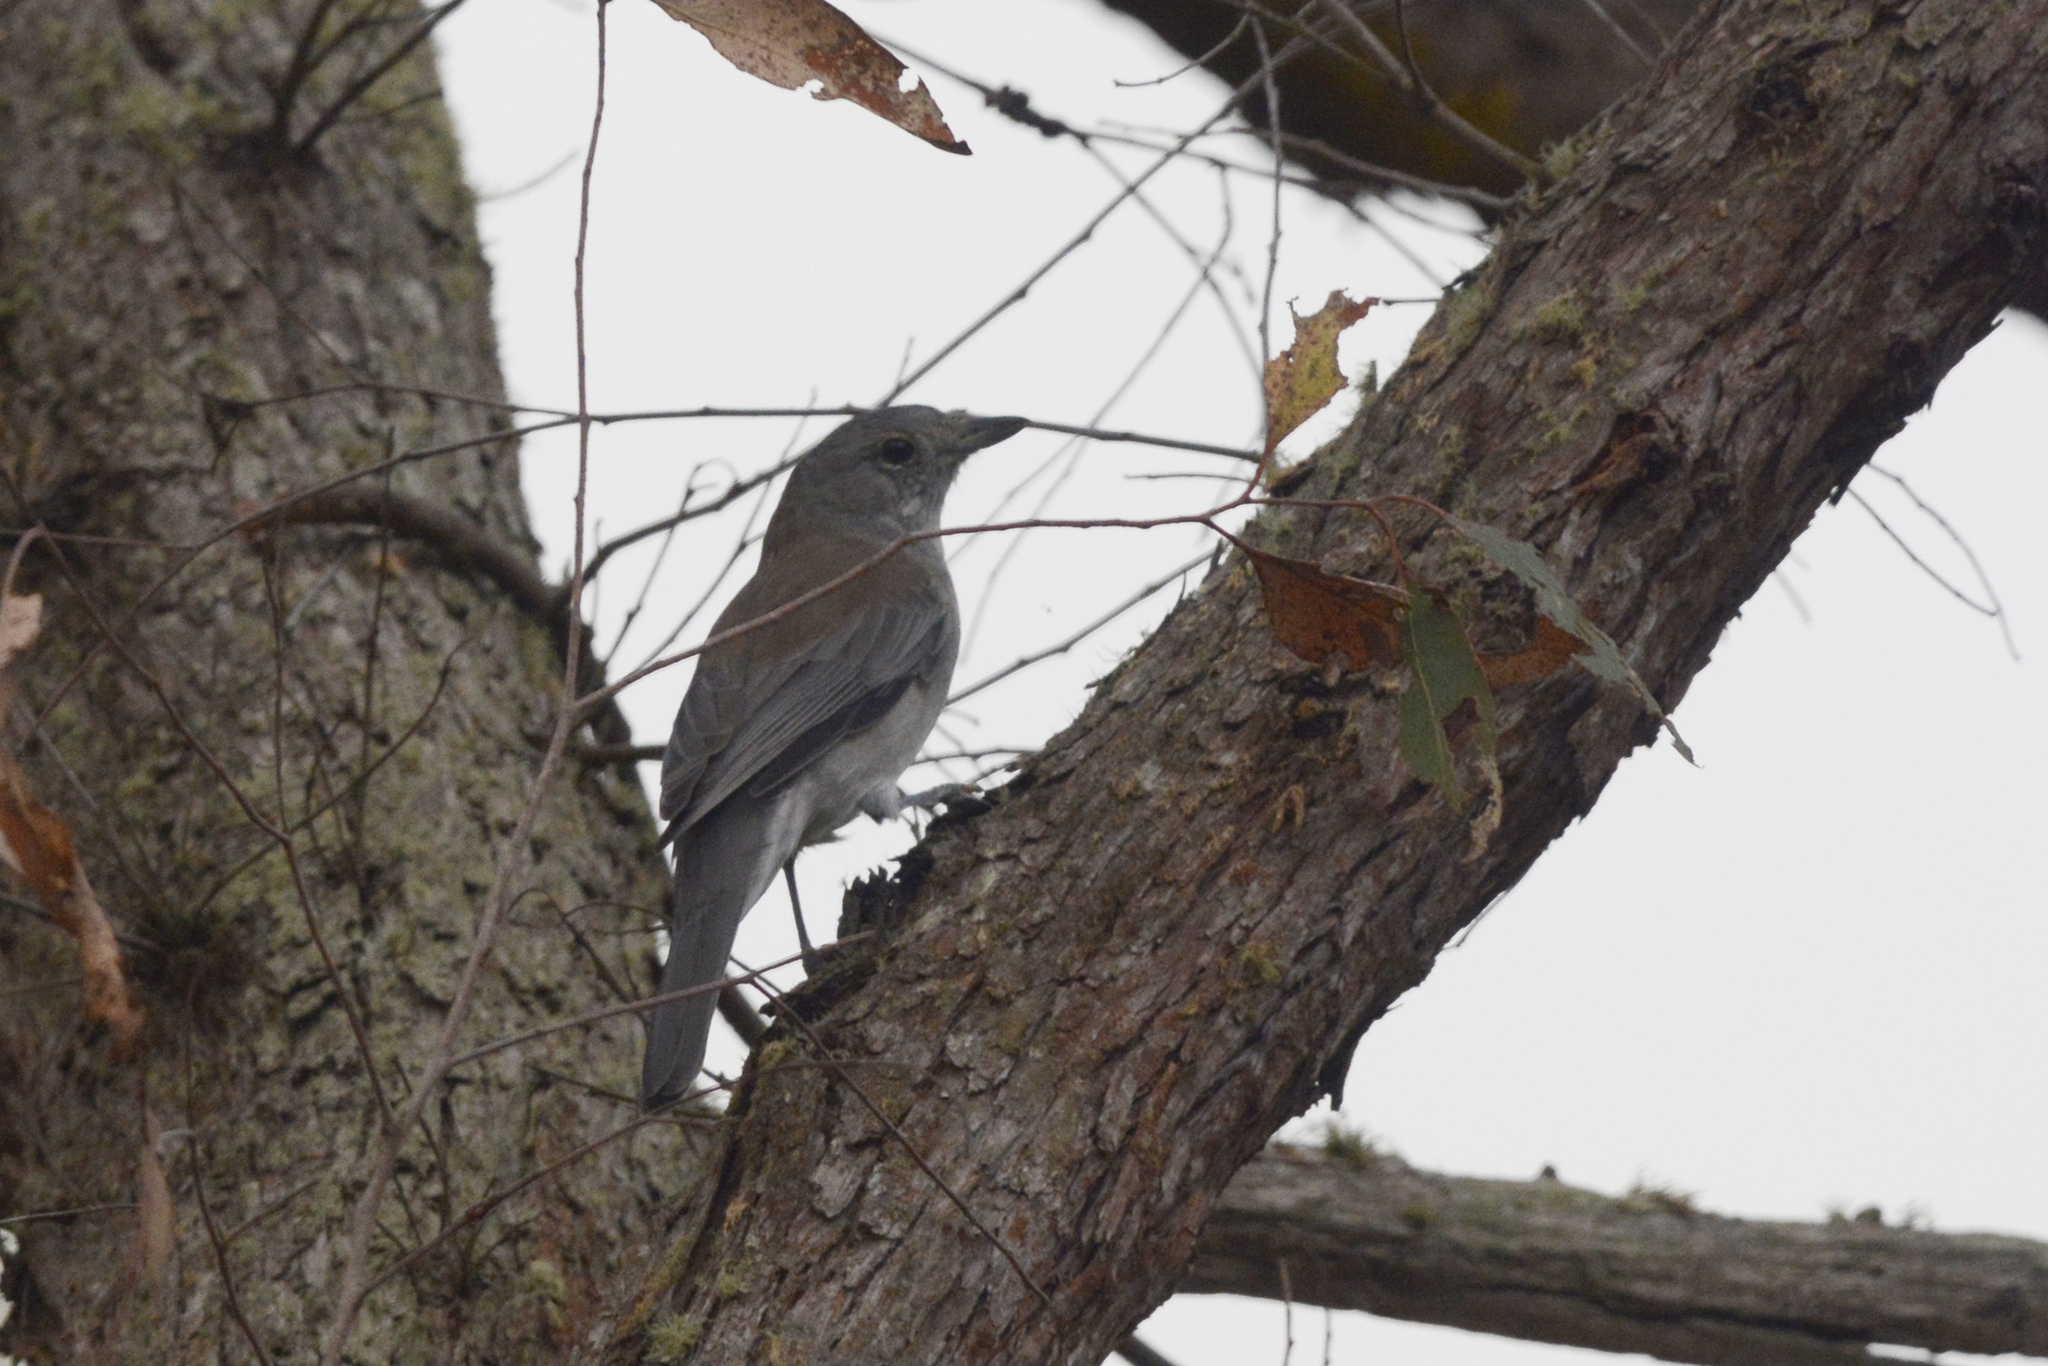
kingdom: Animalia
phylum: Chordata
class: Aves
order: Passeriformes
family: Pachycephalidae
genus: Colluricincla
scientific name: Colluricincla harmonica
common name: Grey shrikethrush
